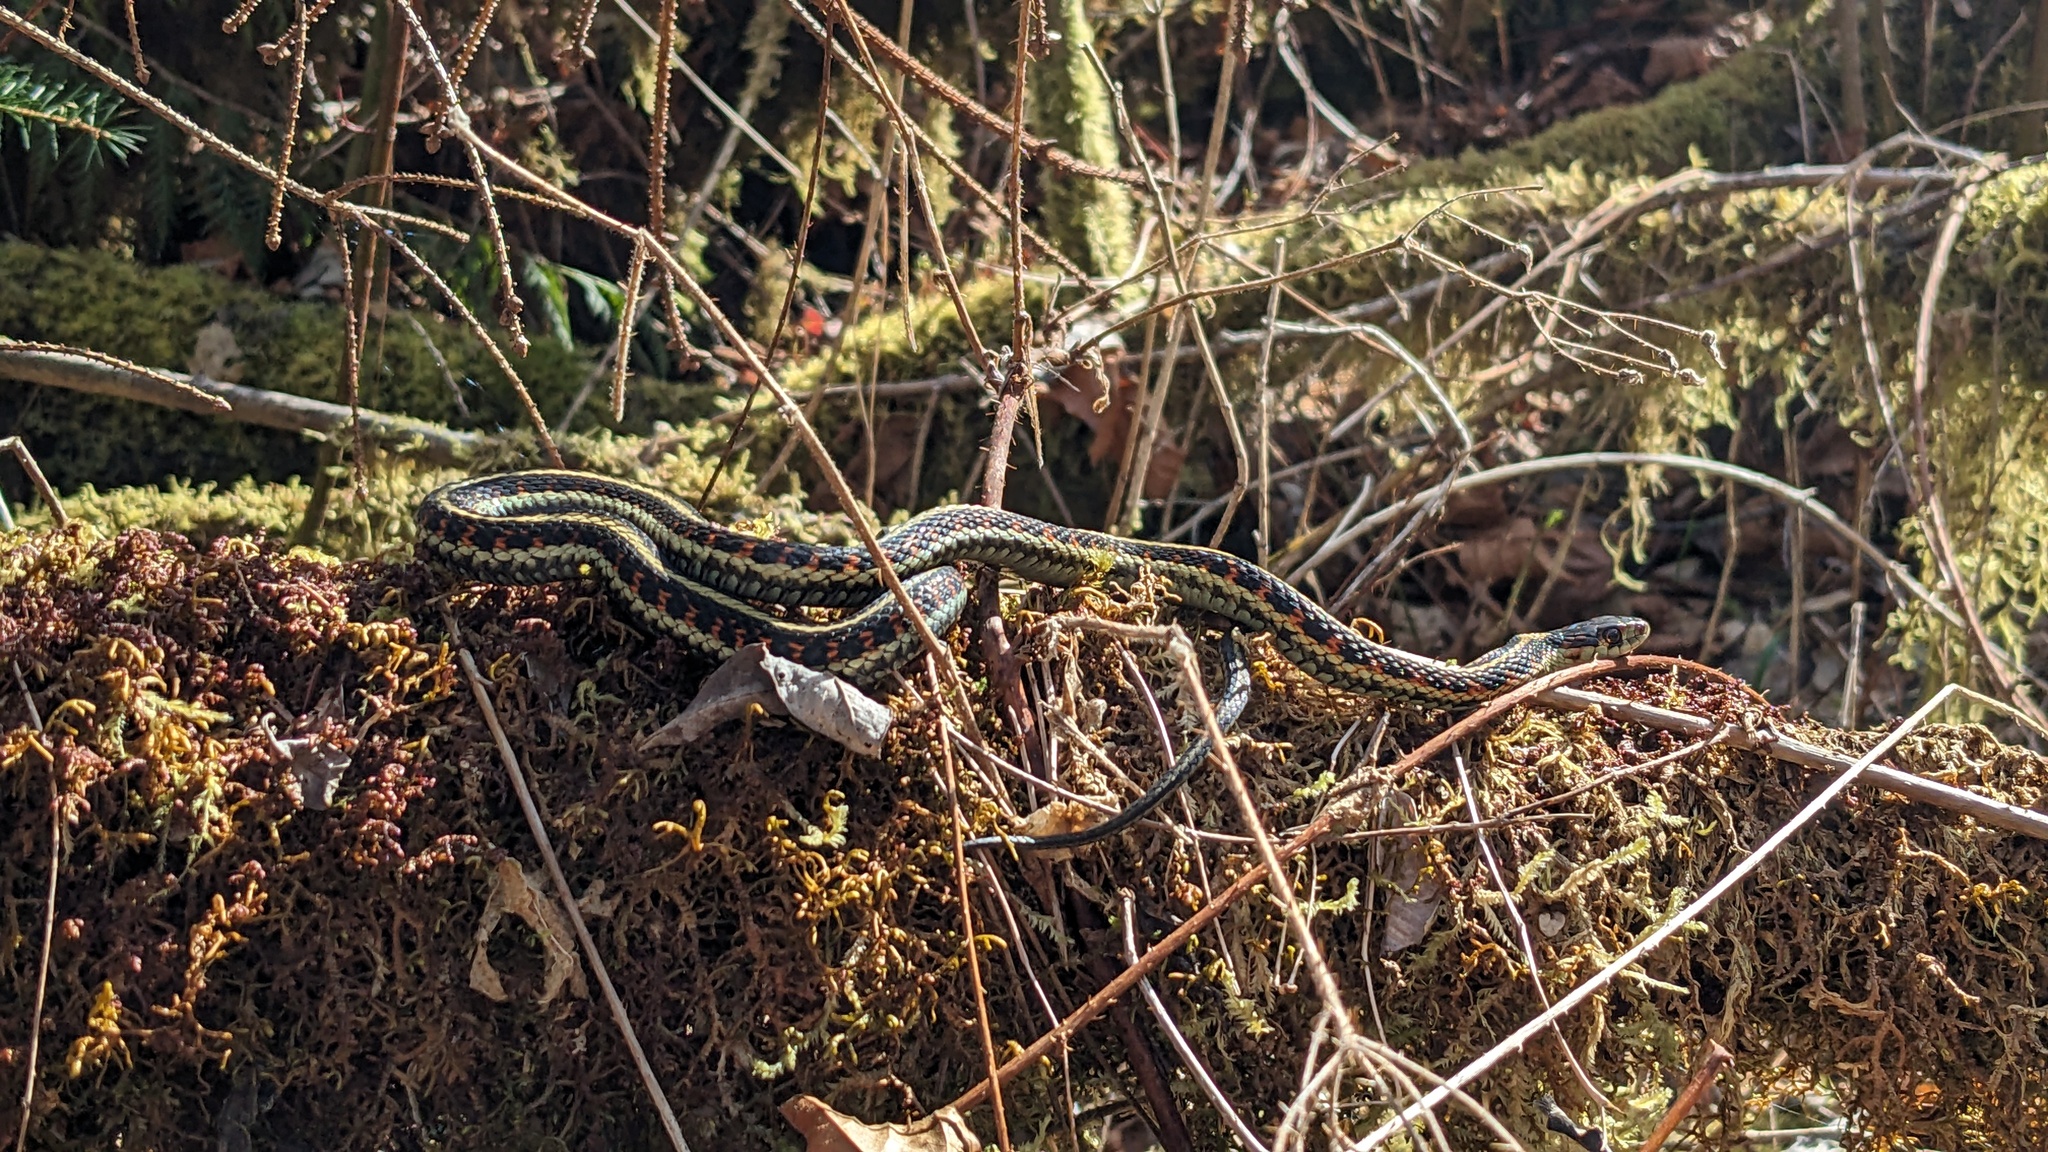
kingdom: Animalia
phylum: Chordata
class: Squamata
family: Colubridae
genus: Thamnophis
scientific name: Thamnophis sirtalis
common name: Common garter snake
